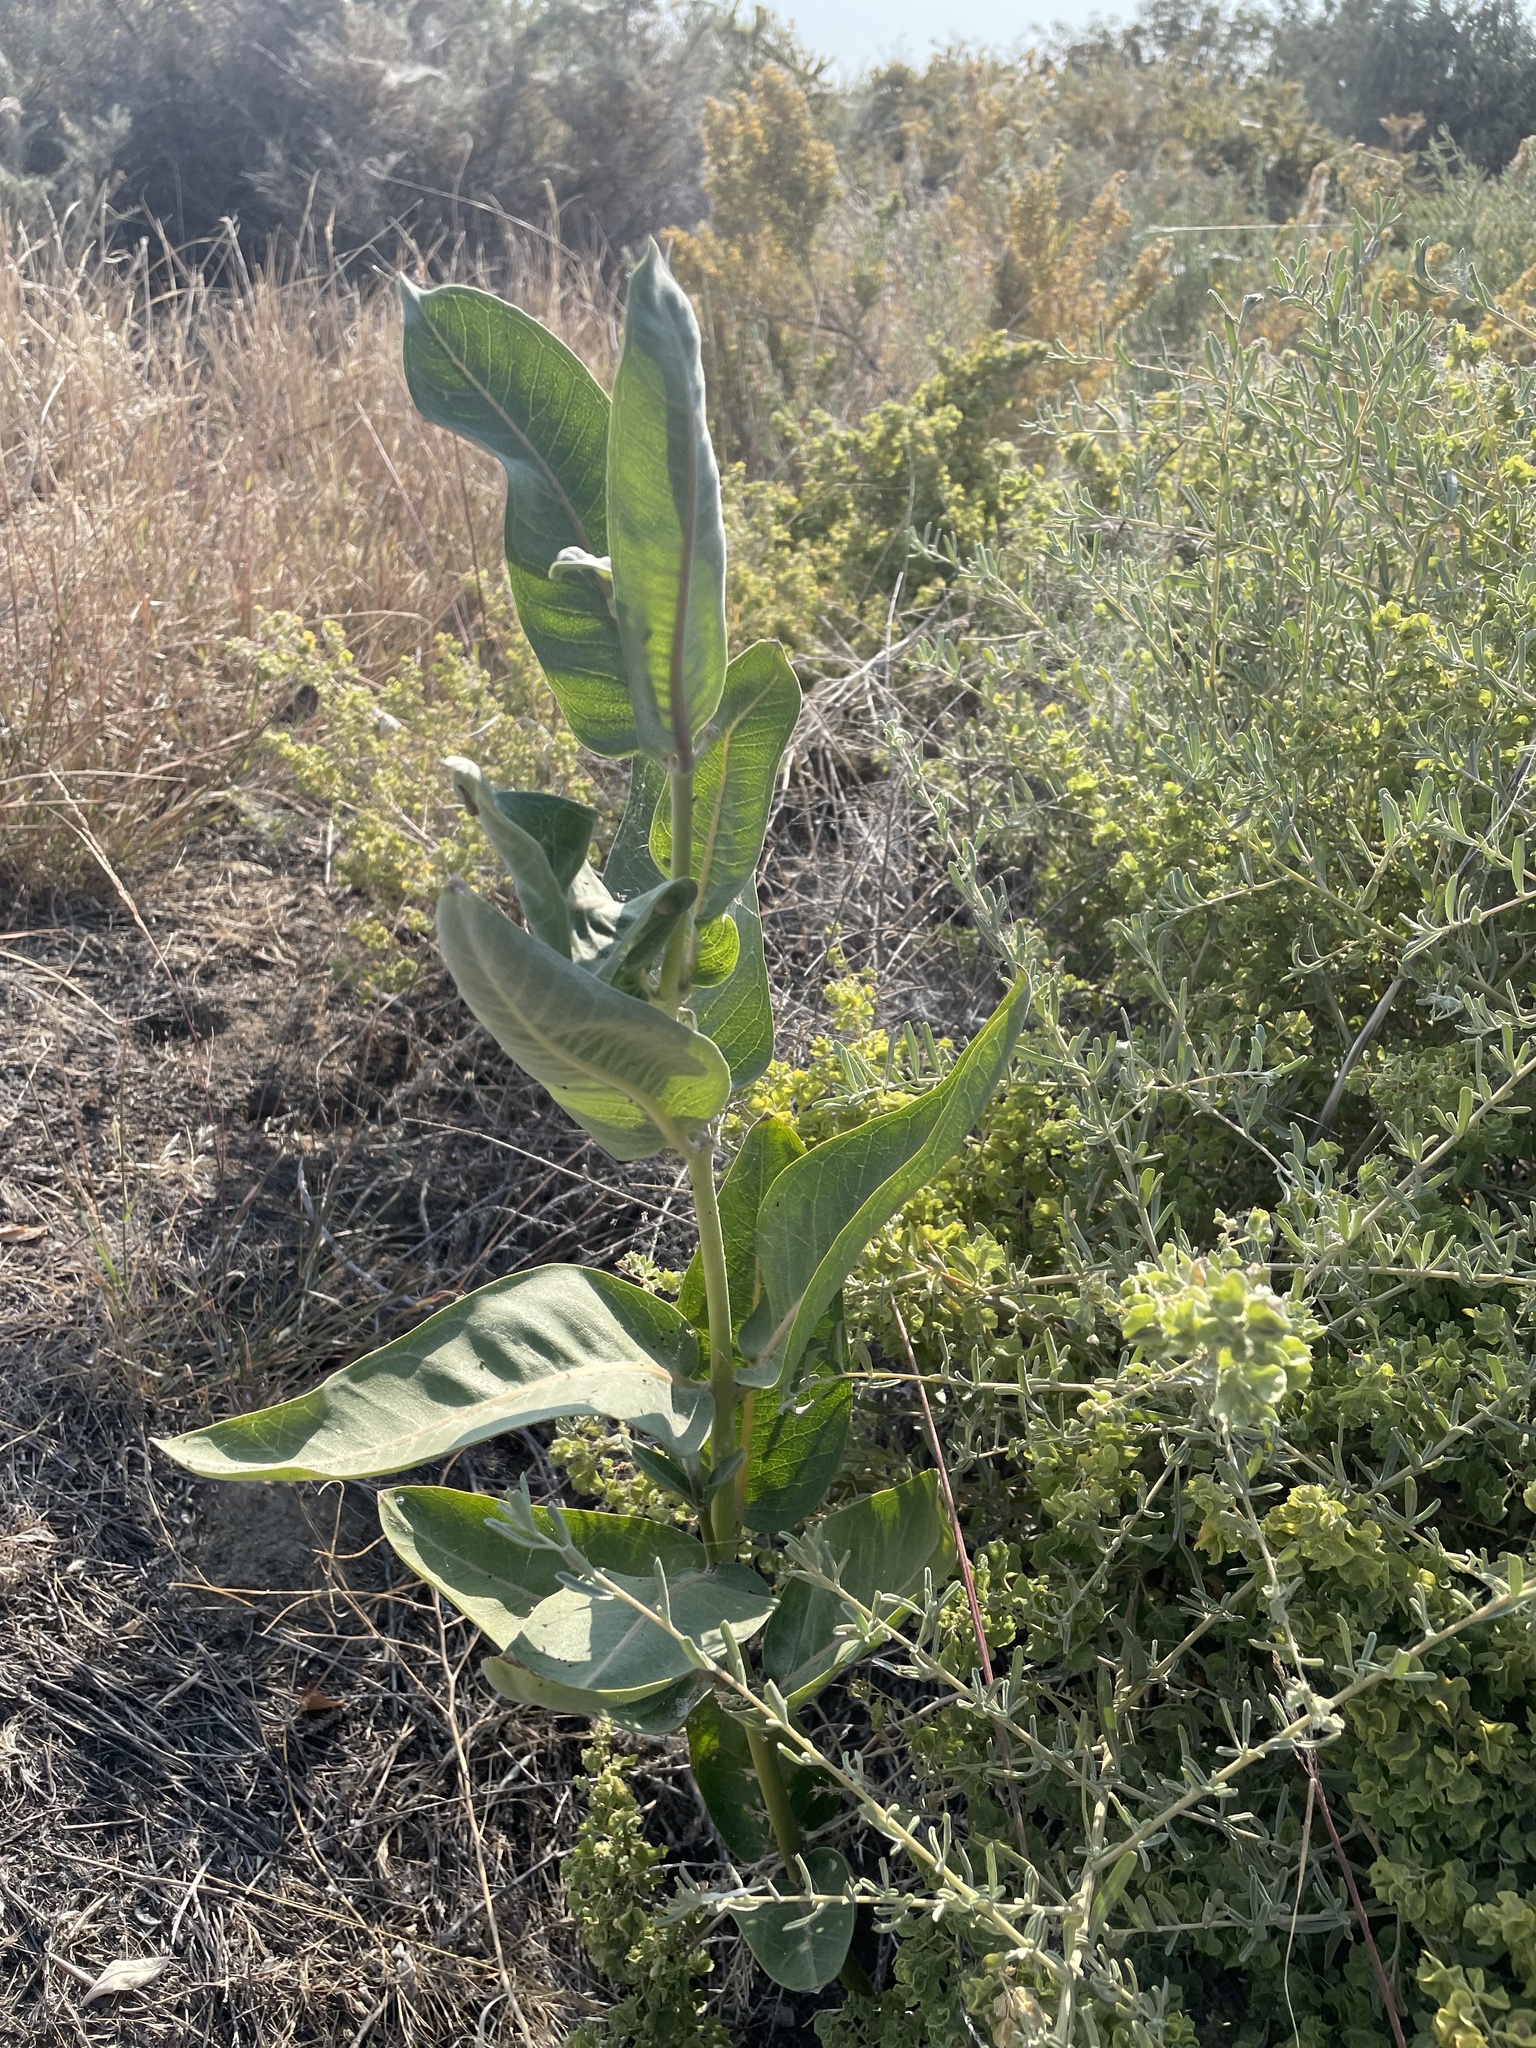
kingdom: Plantae
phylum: Tracheophyta
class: Magnoliopsida
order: Gentianales
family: Apocynaceae
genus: Asclepias
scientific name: Asclepias speciosa
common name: Showy milkweed
